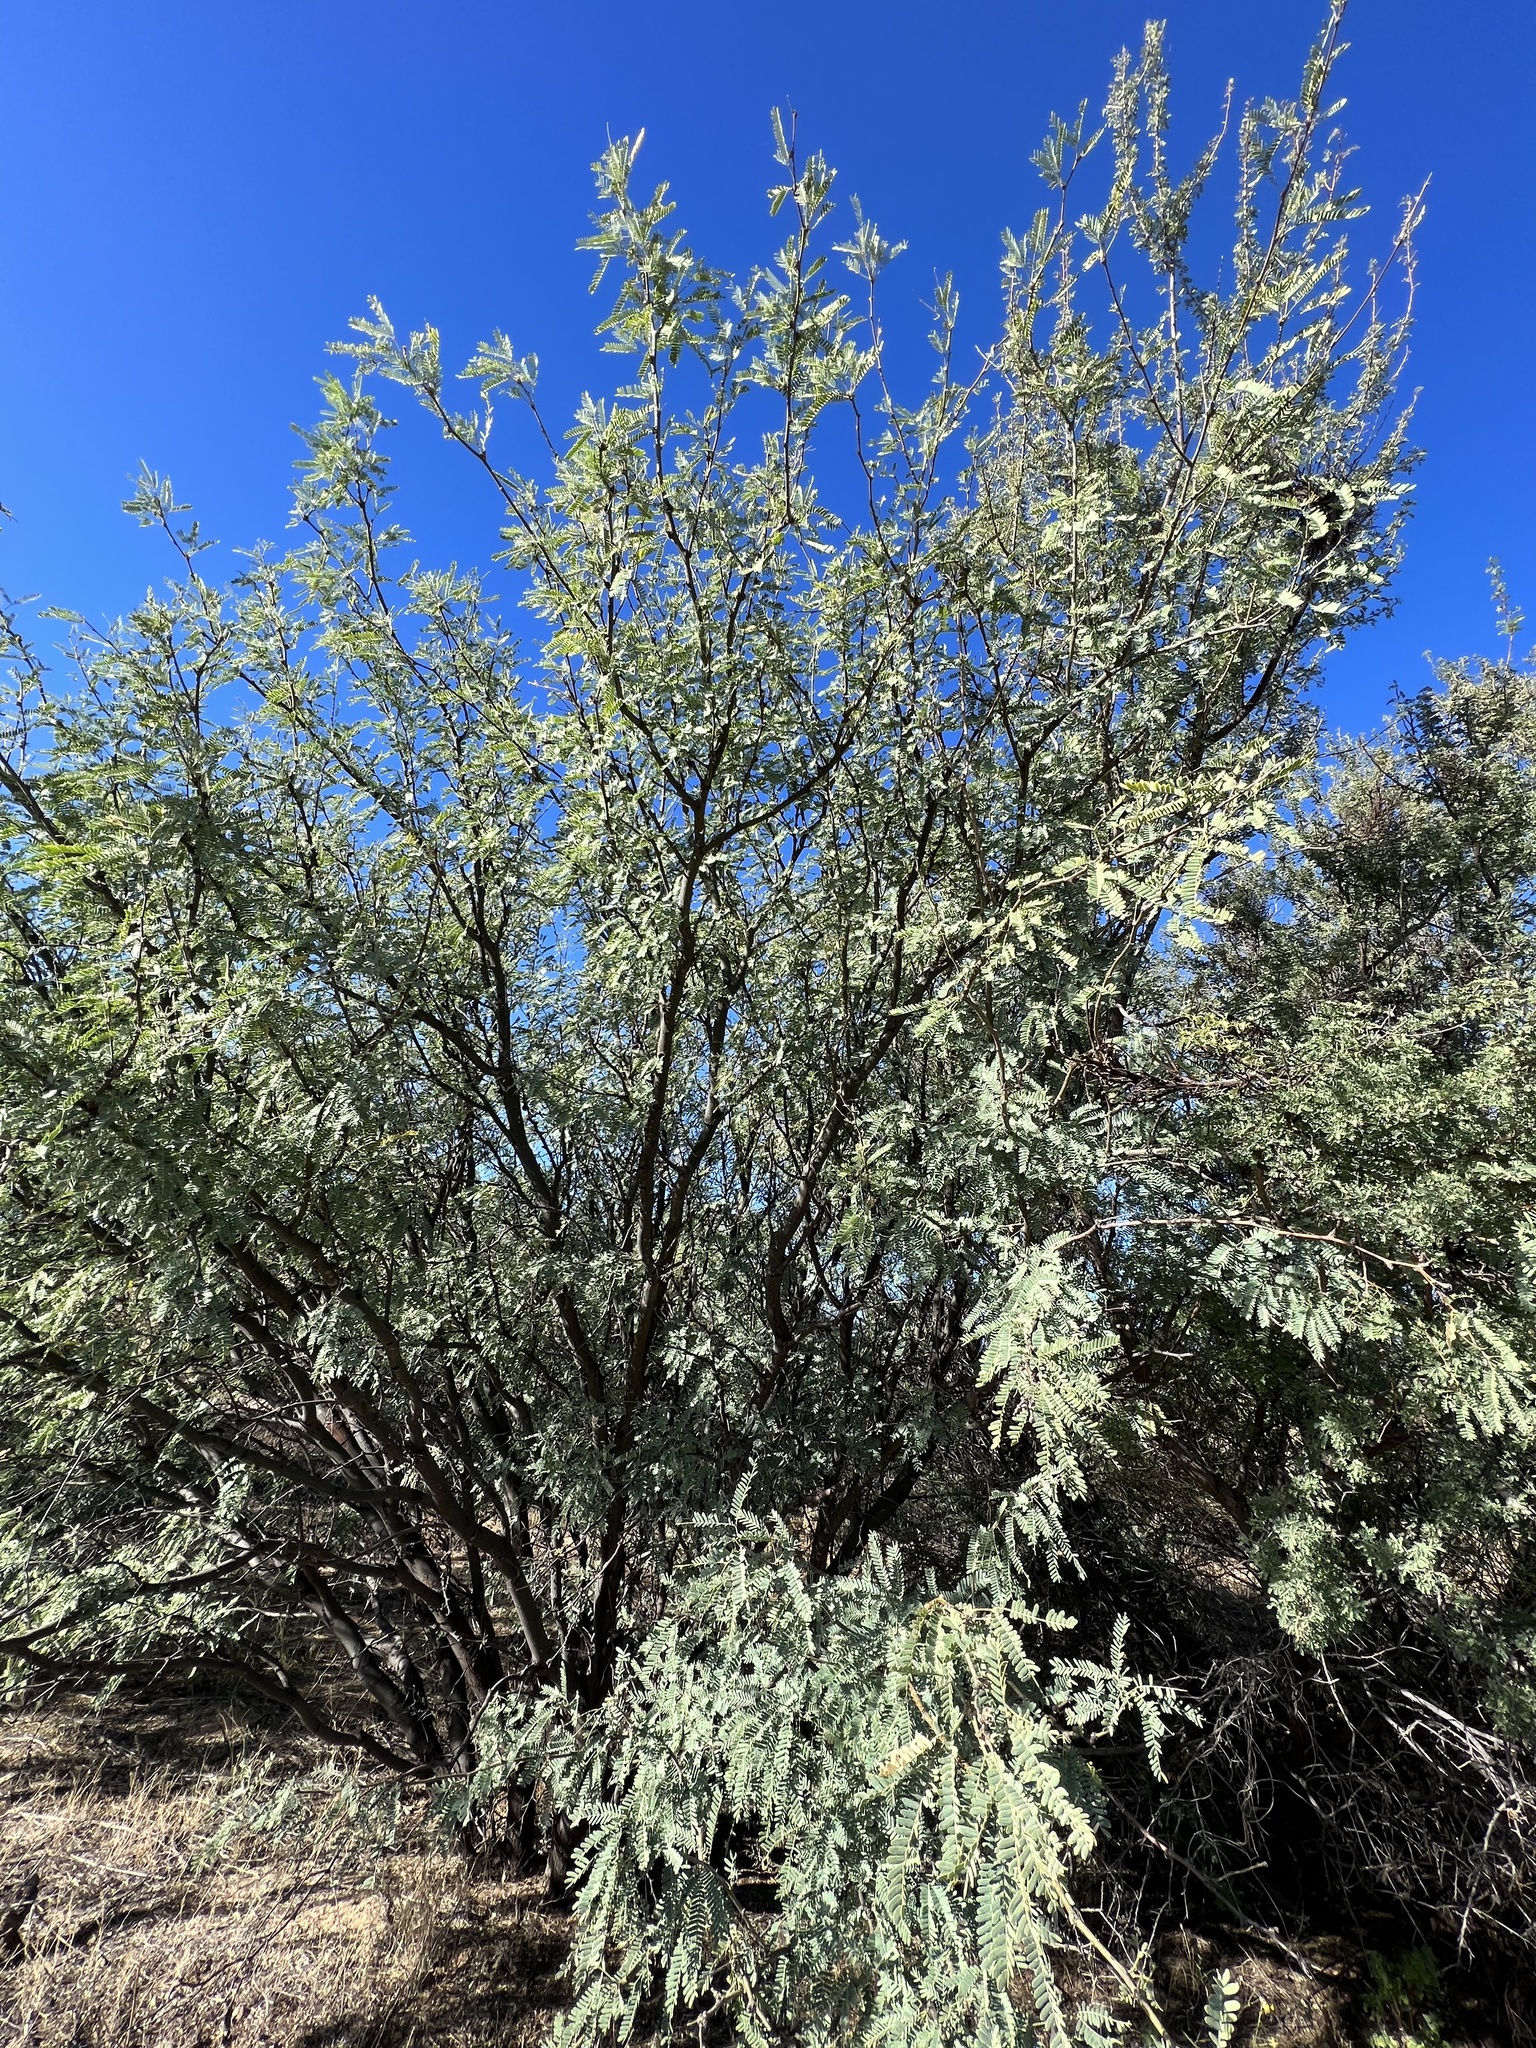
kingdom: Plantae
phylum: Tracheophyta
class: Magnoliopsida
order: Fabales
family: Fabaceae
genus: Prosopis
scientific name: Prosopis velutina
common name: Velvet mesquite
